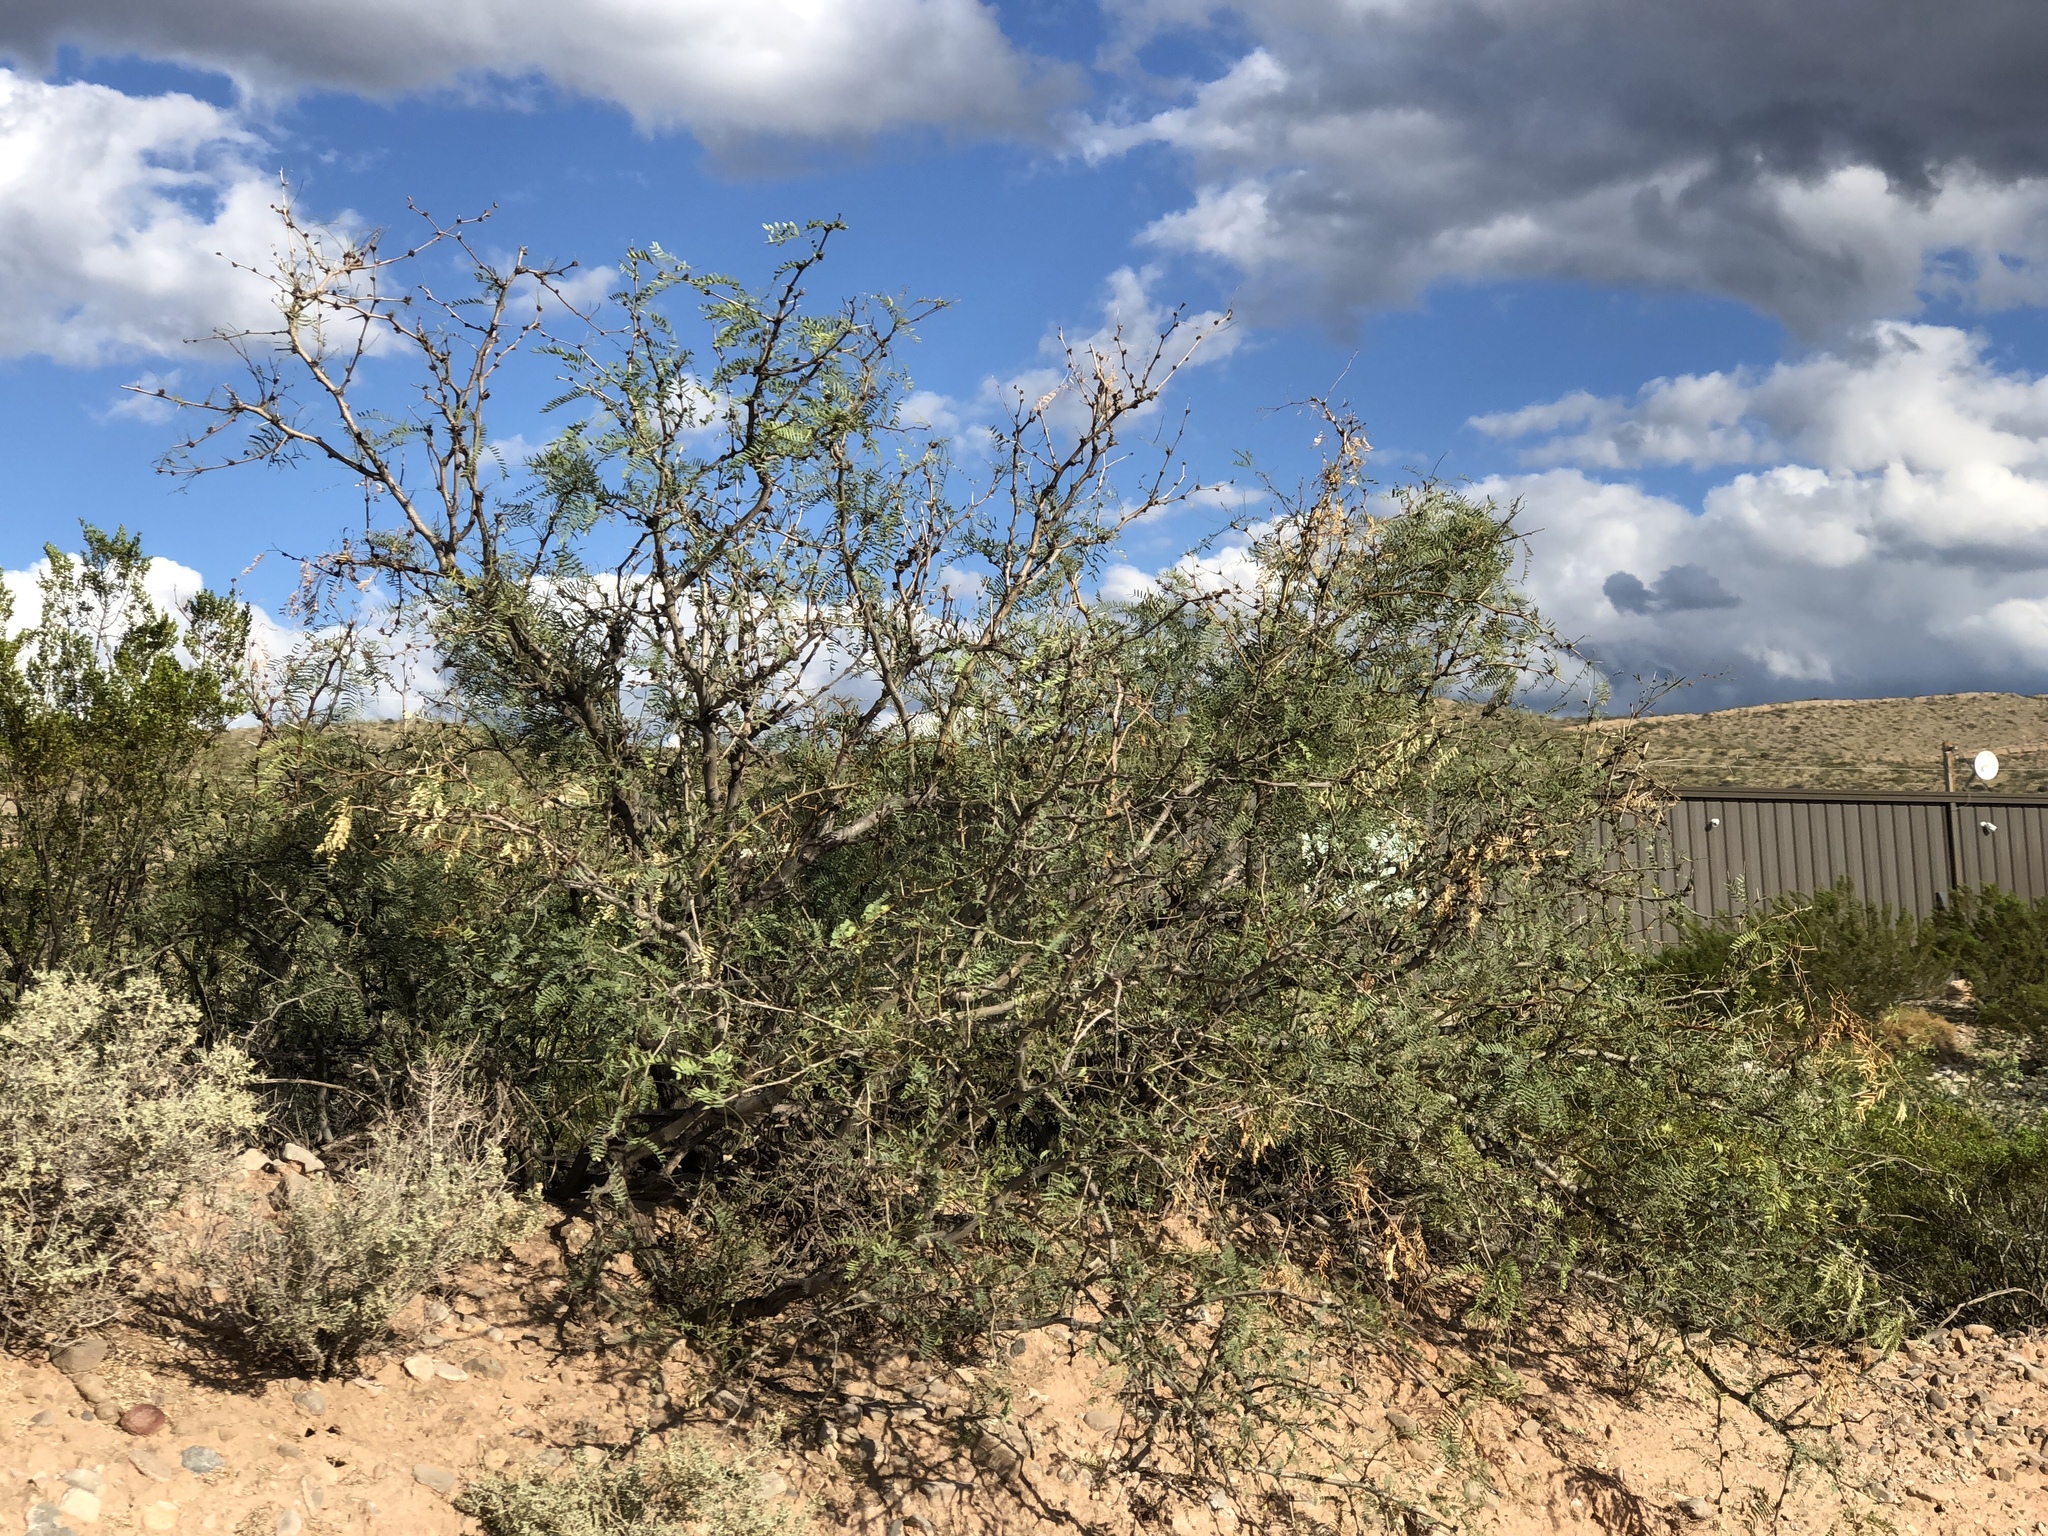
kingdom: Plantae
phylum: Tracheophyta
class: Magnoliopsida
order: Fabales
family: Fabaceae
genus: Prosopis
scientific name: Prosopis glandulosa
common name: Honey mesquite
